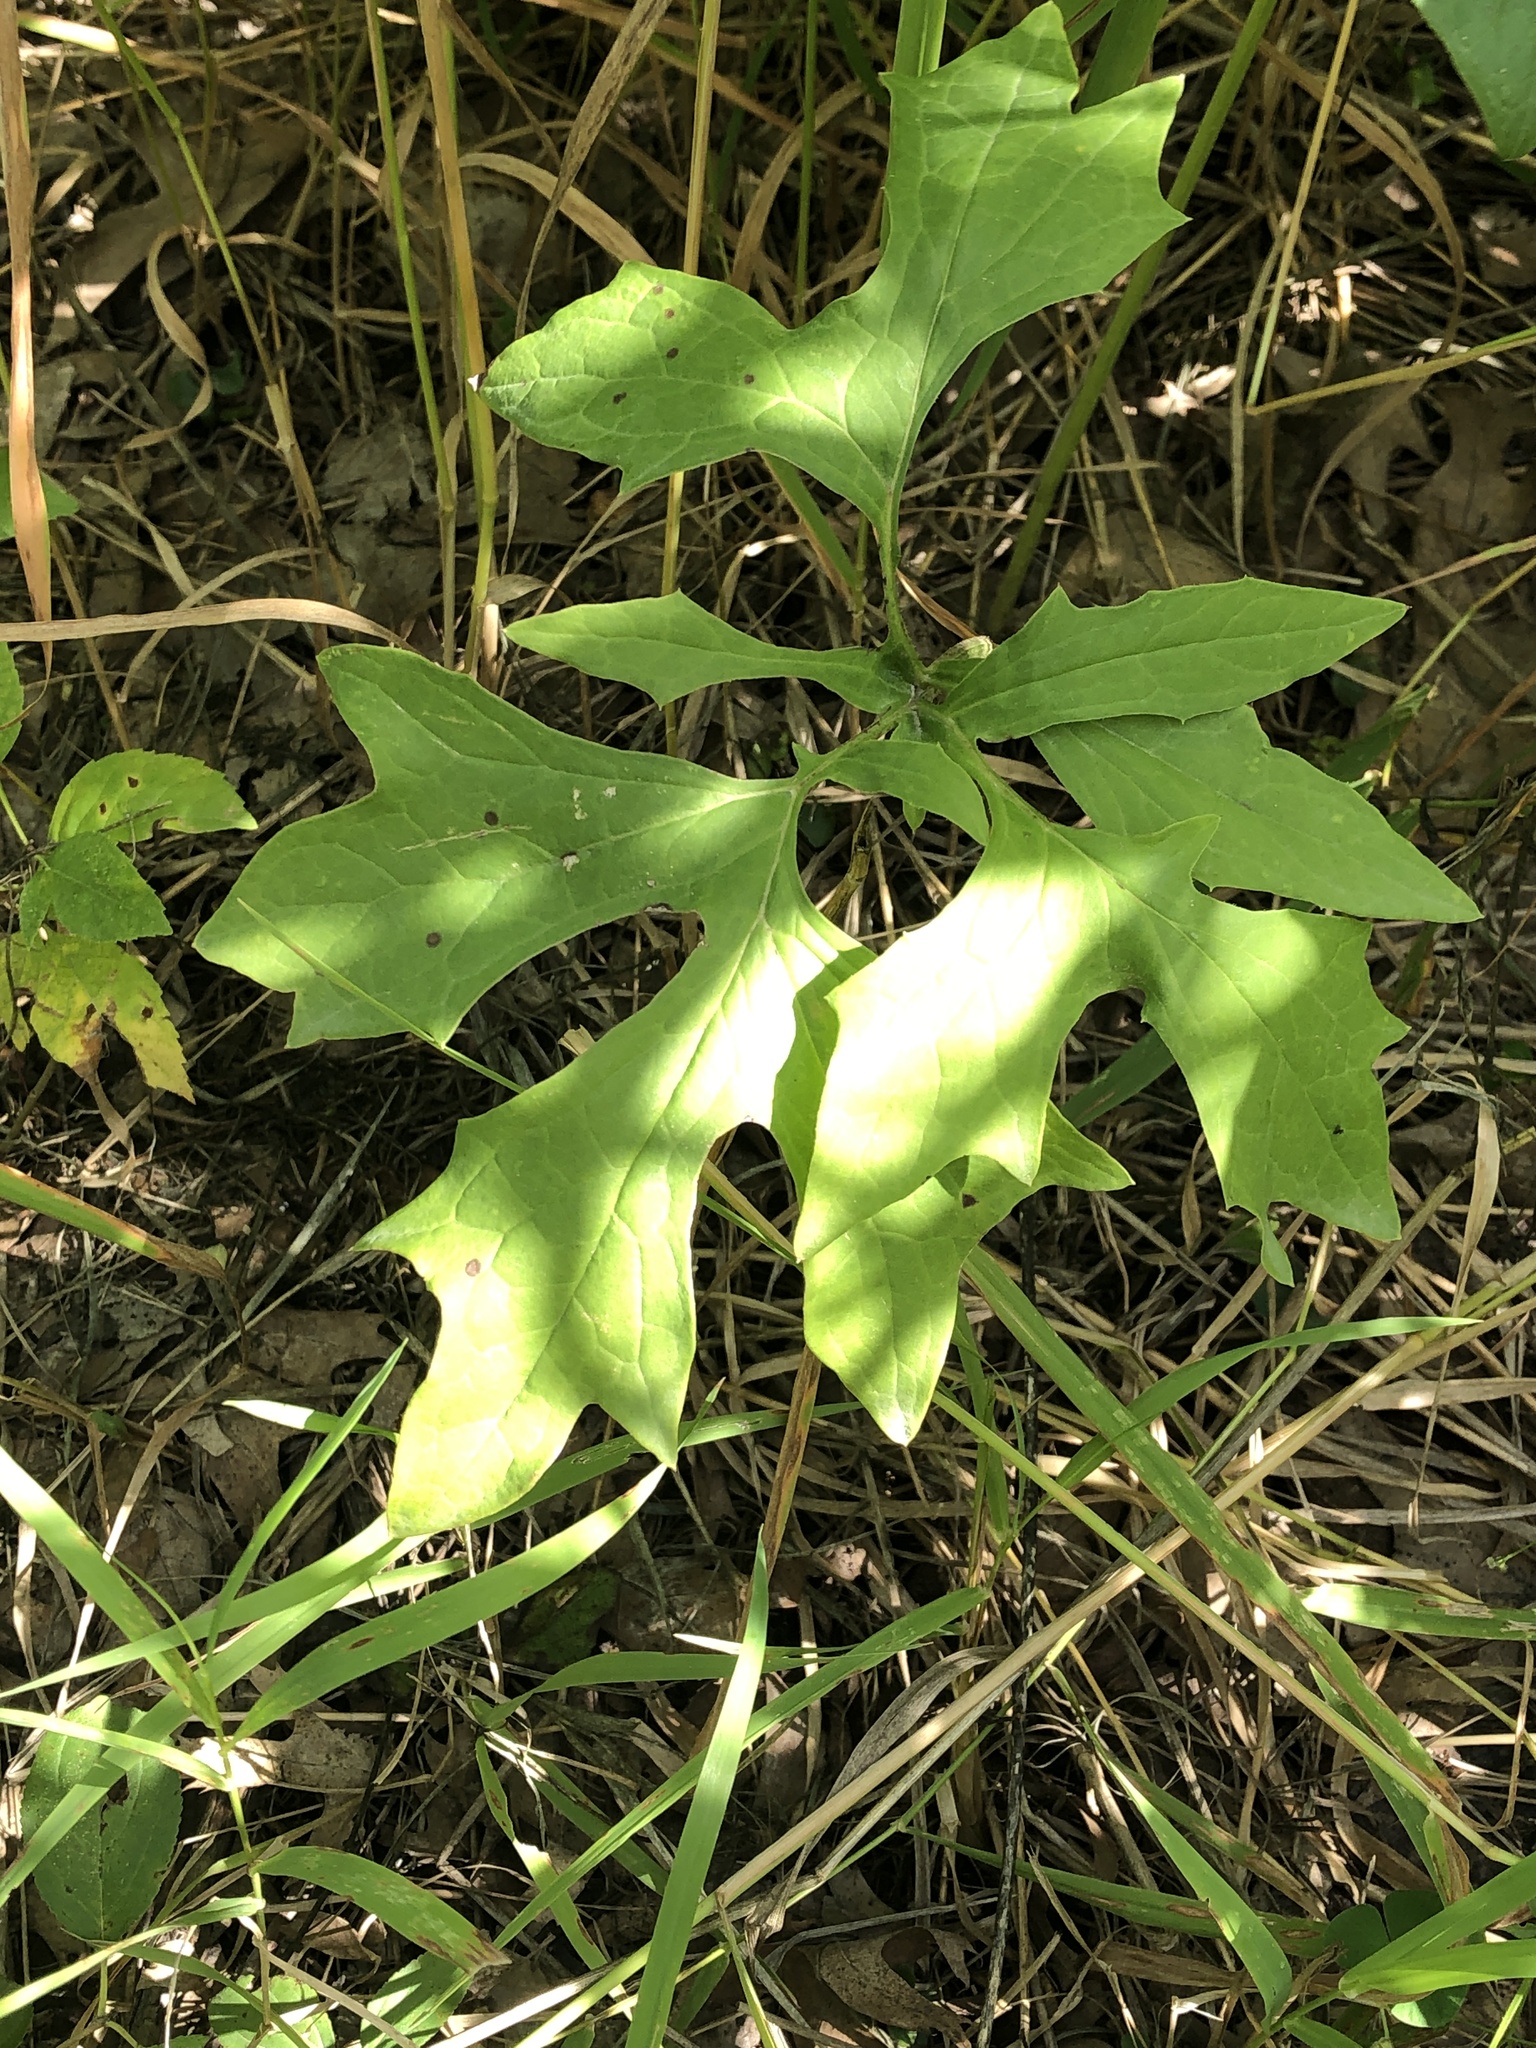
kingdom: Plantae
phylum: Tracheophyta
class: Magnoliopsida
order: Asterales
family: Asteraceae
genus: Nabalus
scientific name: Nabalus albus
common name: White rattlesnakeroot
